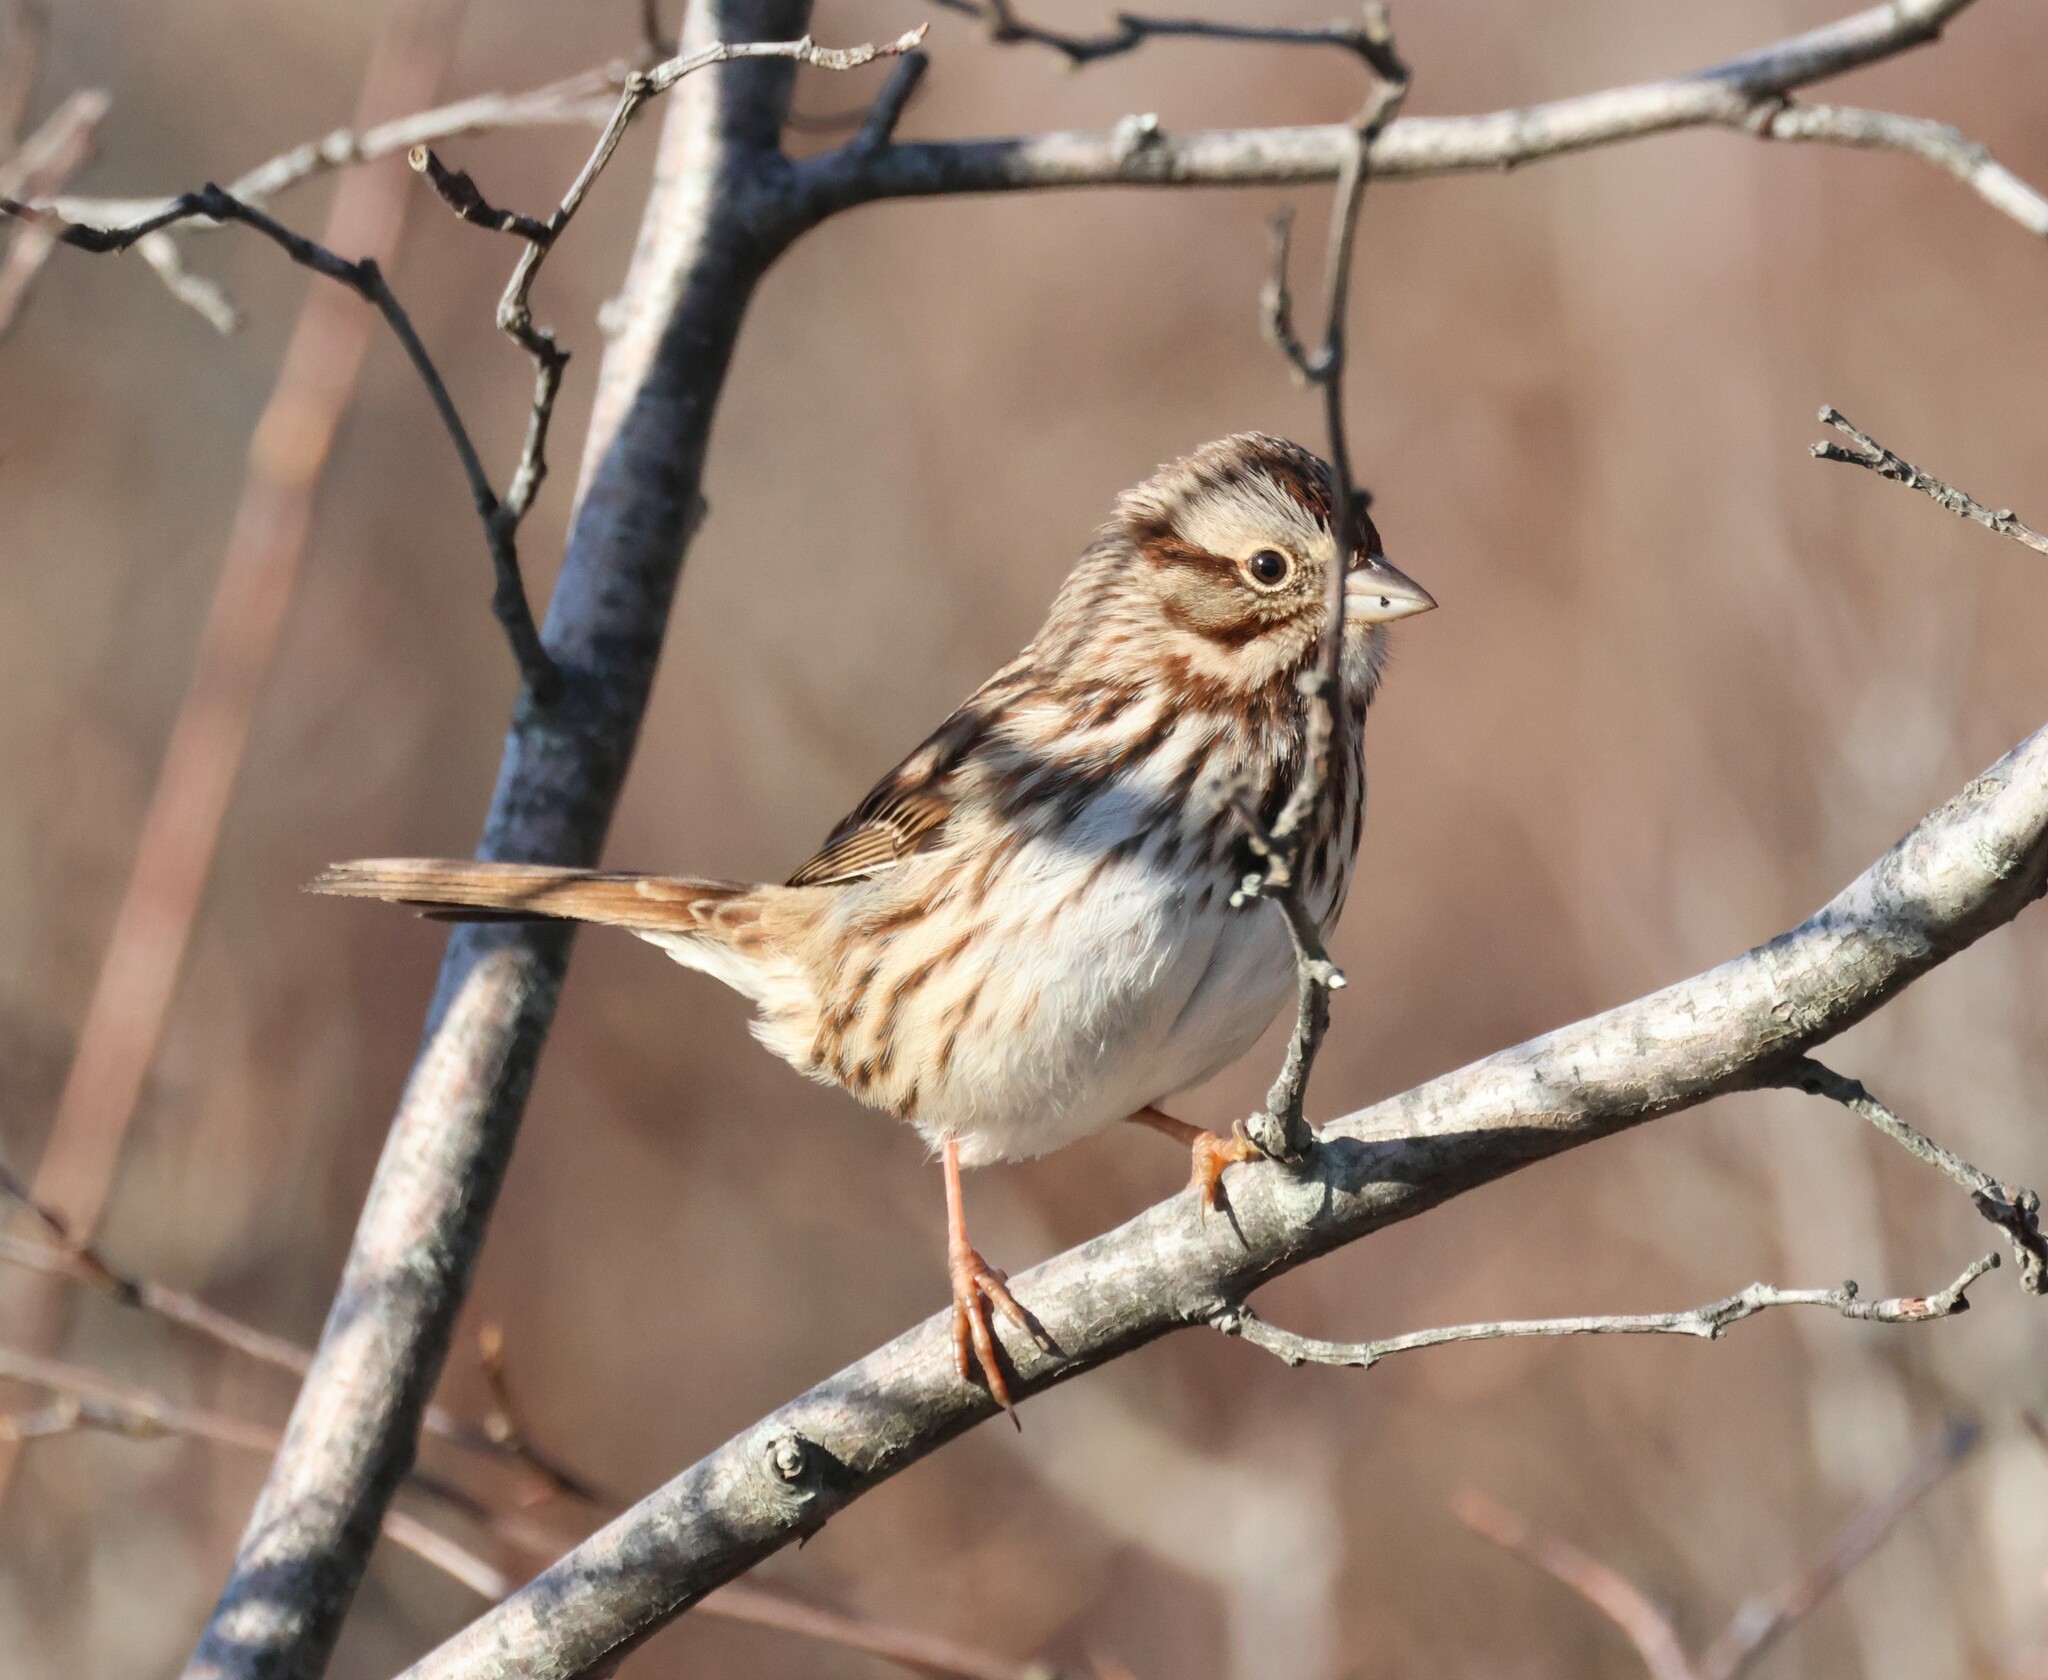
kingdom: Animalia
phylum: Chordata
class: Aves
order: Passeriformes
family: Passerellidae
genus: Melospiza
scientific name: Melospiza melodia
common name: Song sparrow
